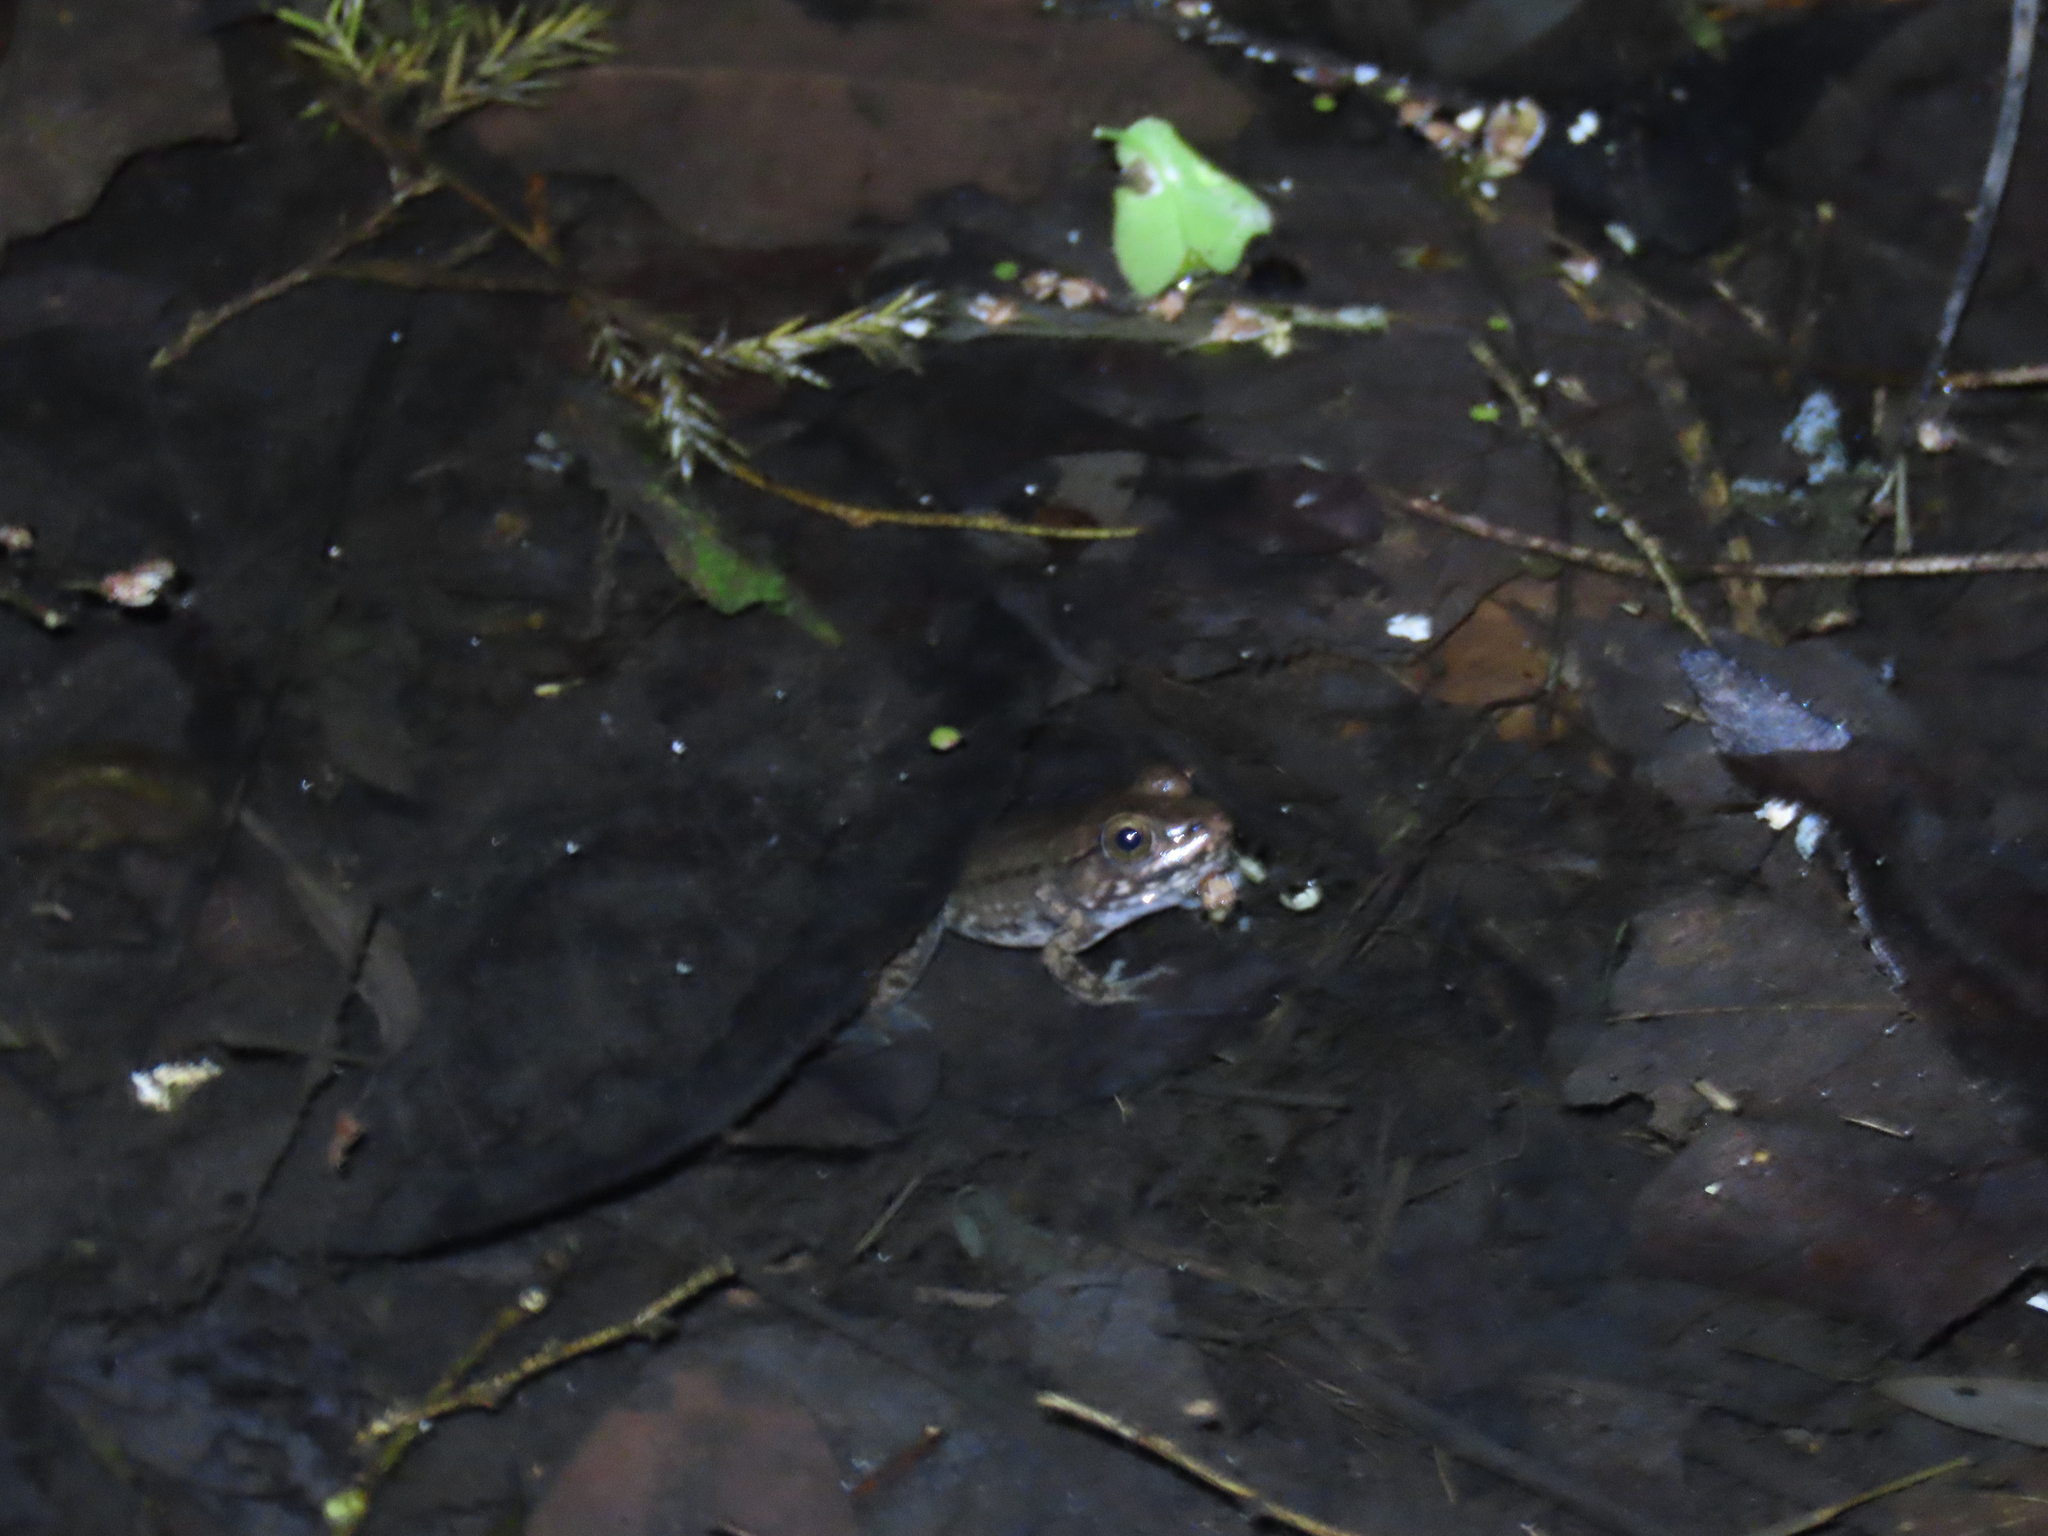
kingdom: Animalia
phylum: Chordata
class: Amphibia
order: Anura
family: Ranidae
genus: Lithobates
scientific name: Lithobates clamitans
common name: Green frog
